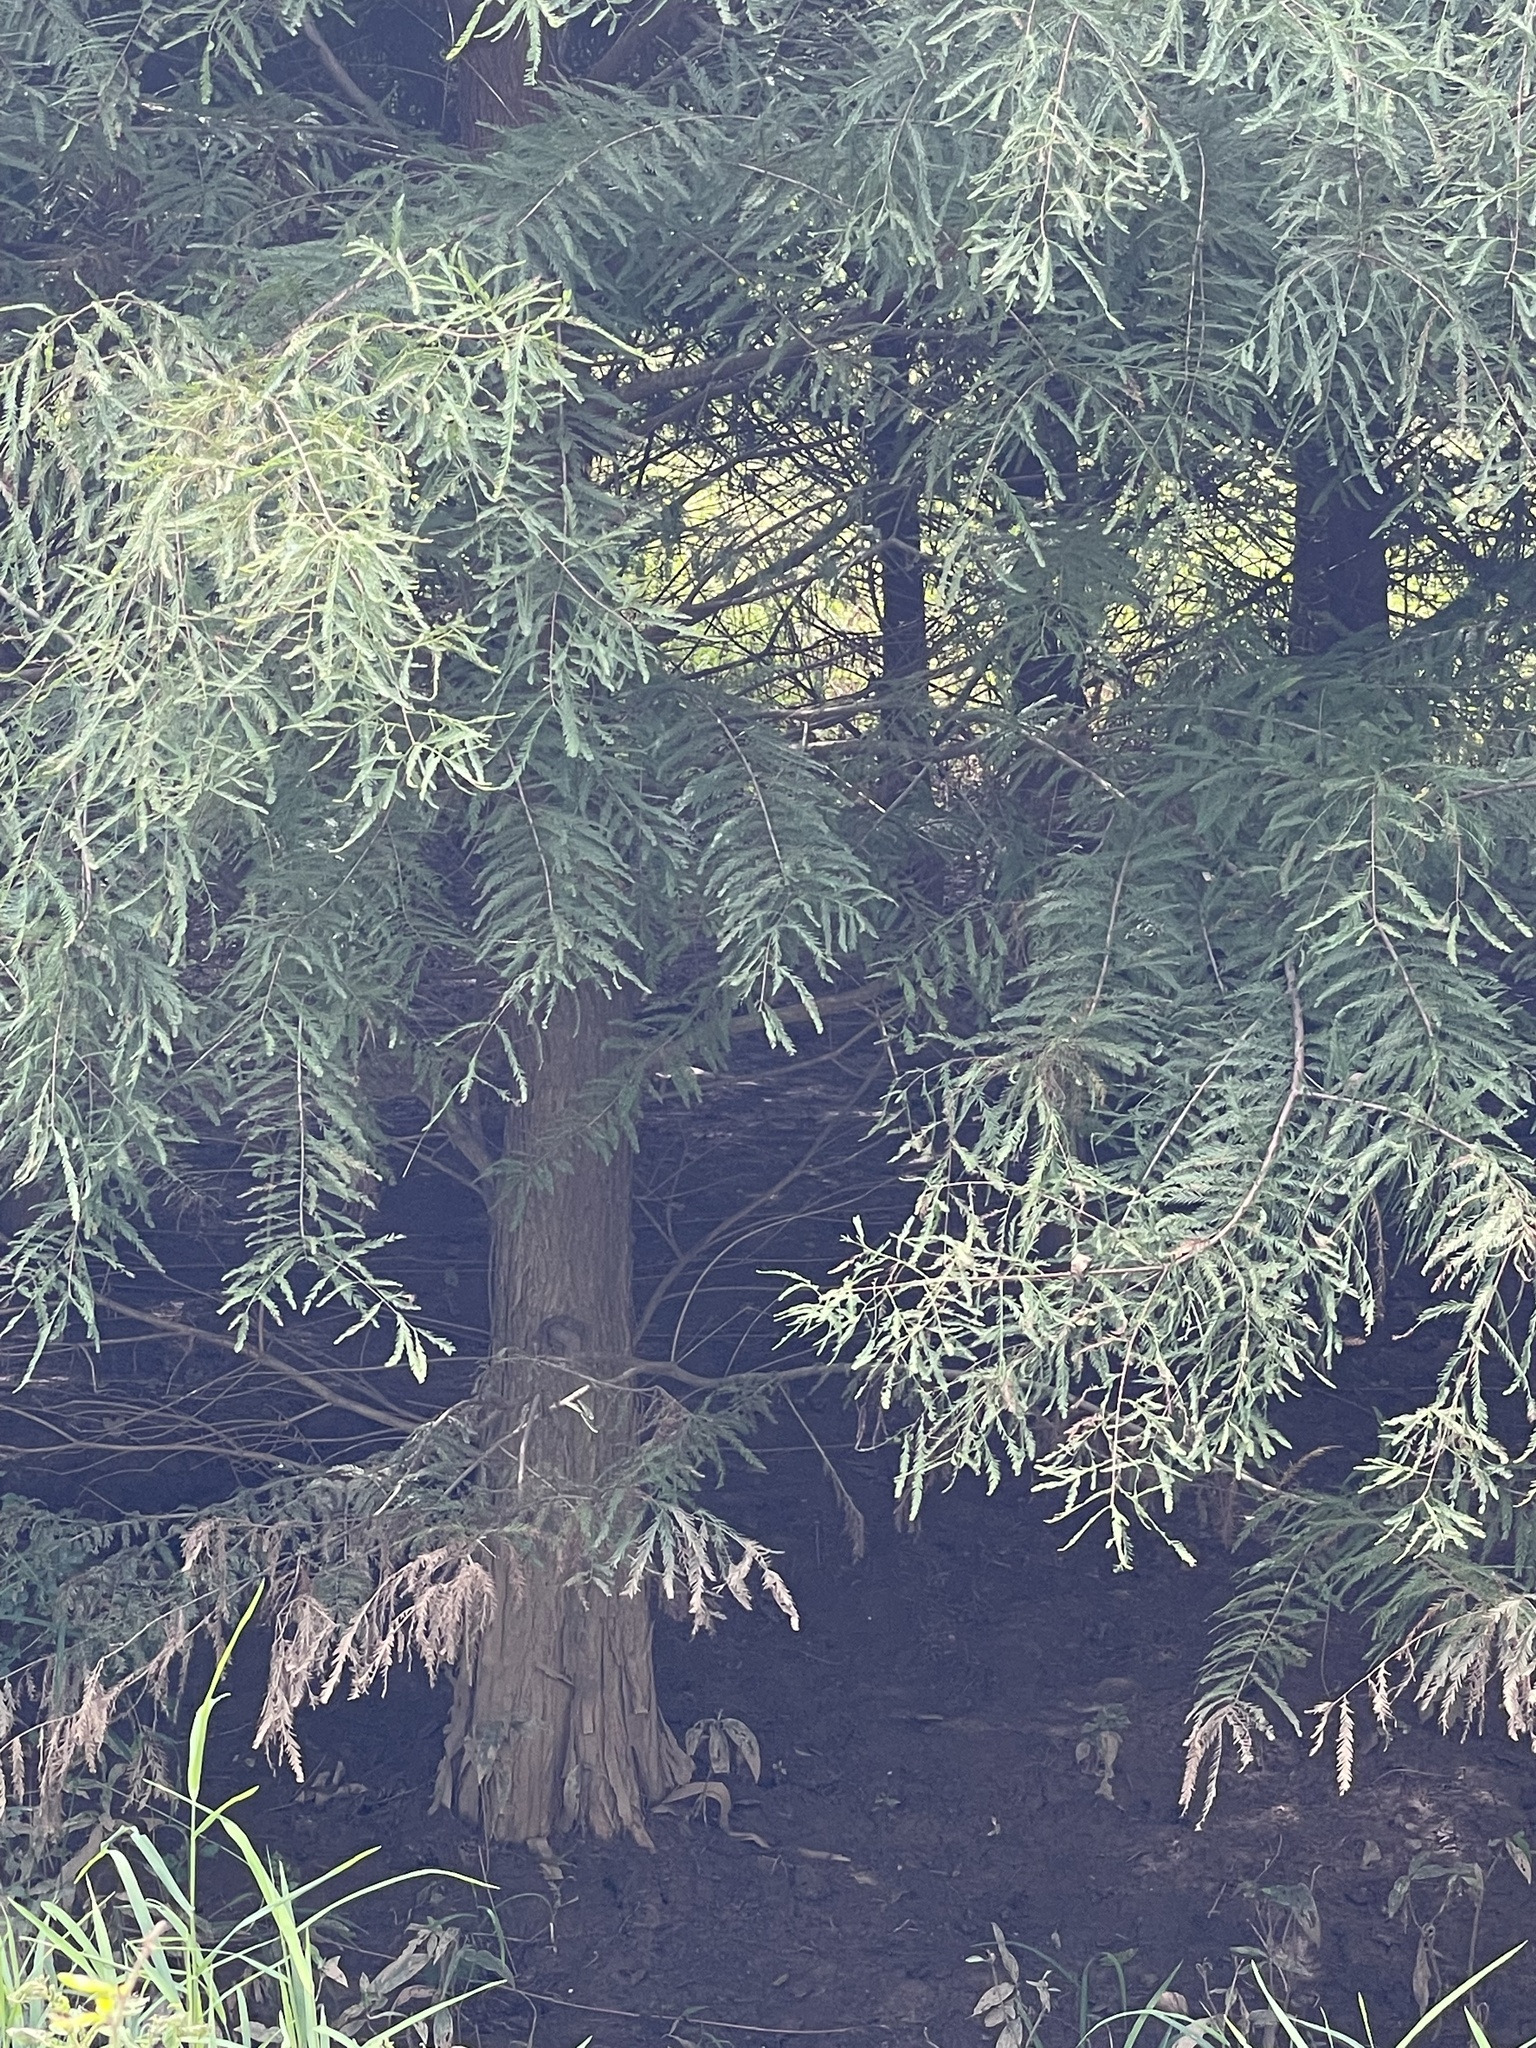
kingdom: Plantae
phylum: Tracheophyta
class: Pinopsida
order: Pinales
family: Cupressaceae
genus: Taxodium
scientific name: Taxodium distichum
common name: Bald cypress
